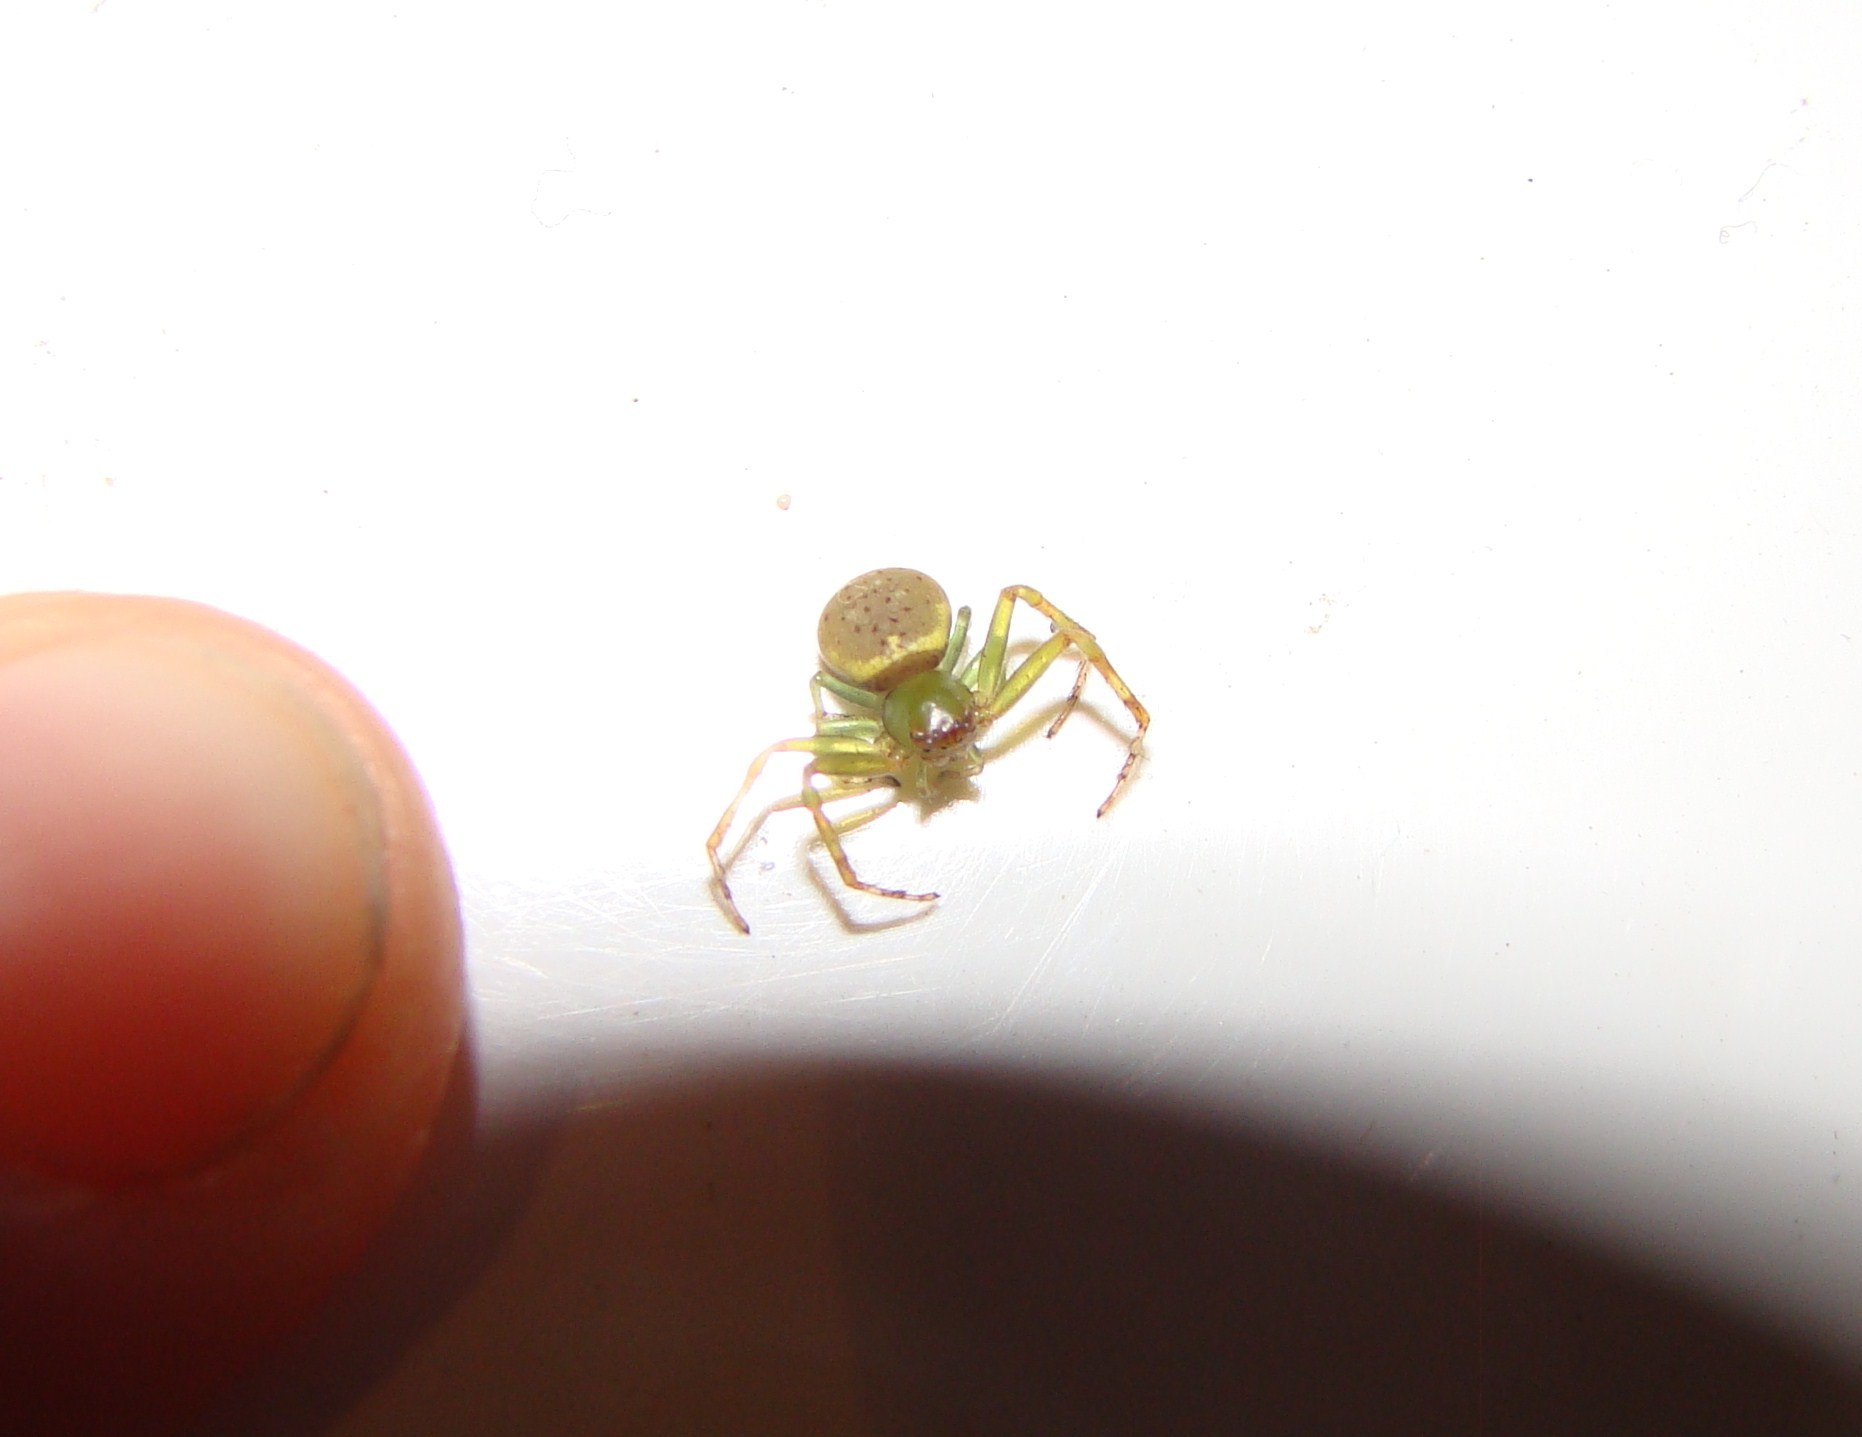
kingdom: Animalia
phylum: Arthropoda
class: Arachnida
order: Araneae
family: Thomisidae
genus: Diaea
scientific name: Diaea
